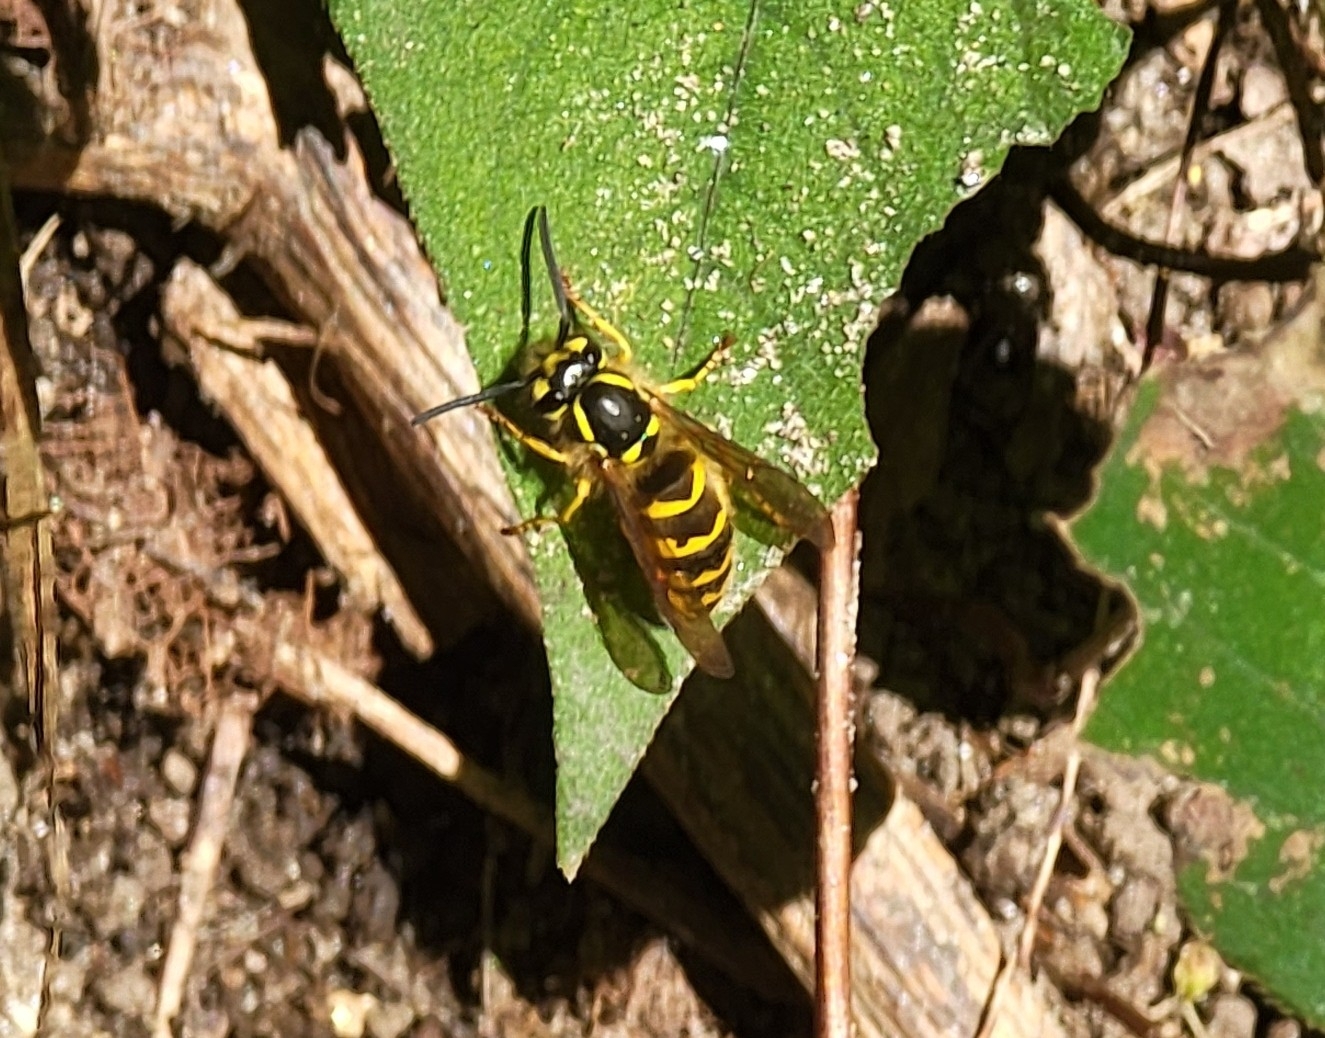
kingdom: Animalia
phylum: Arthropoda
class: Insecta
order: Hymenoptera
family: Vespidae
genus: Vespula
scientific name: Vespula flavopilosa
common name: Downy yellowjacket
